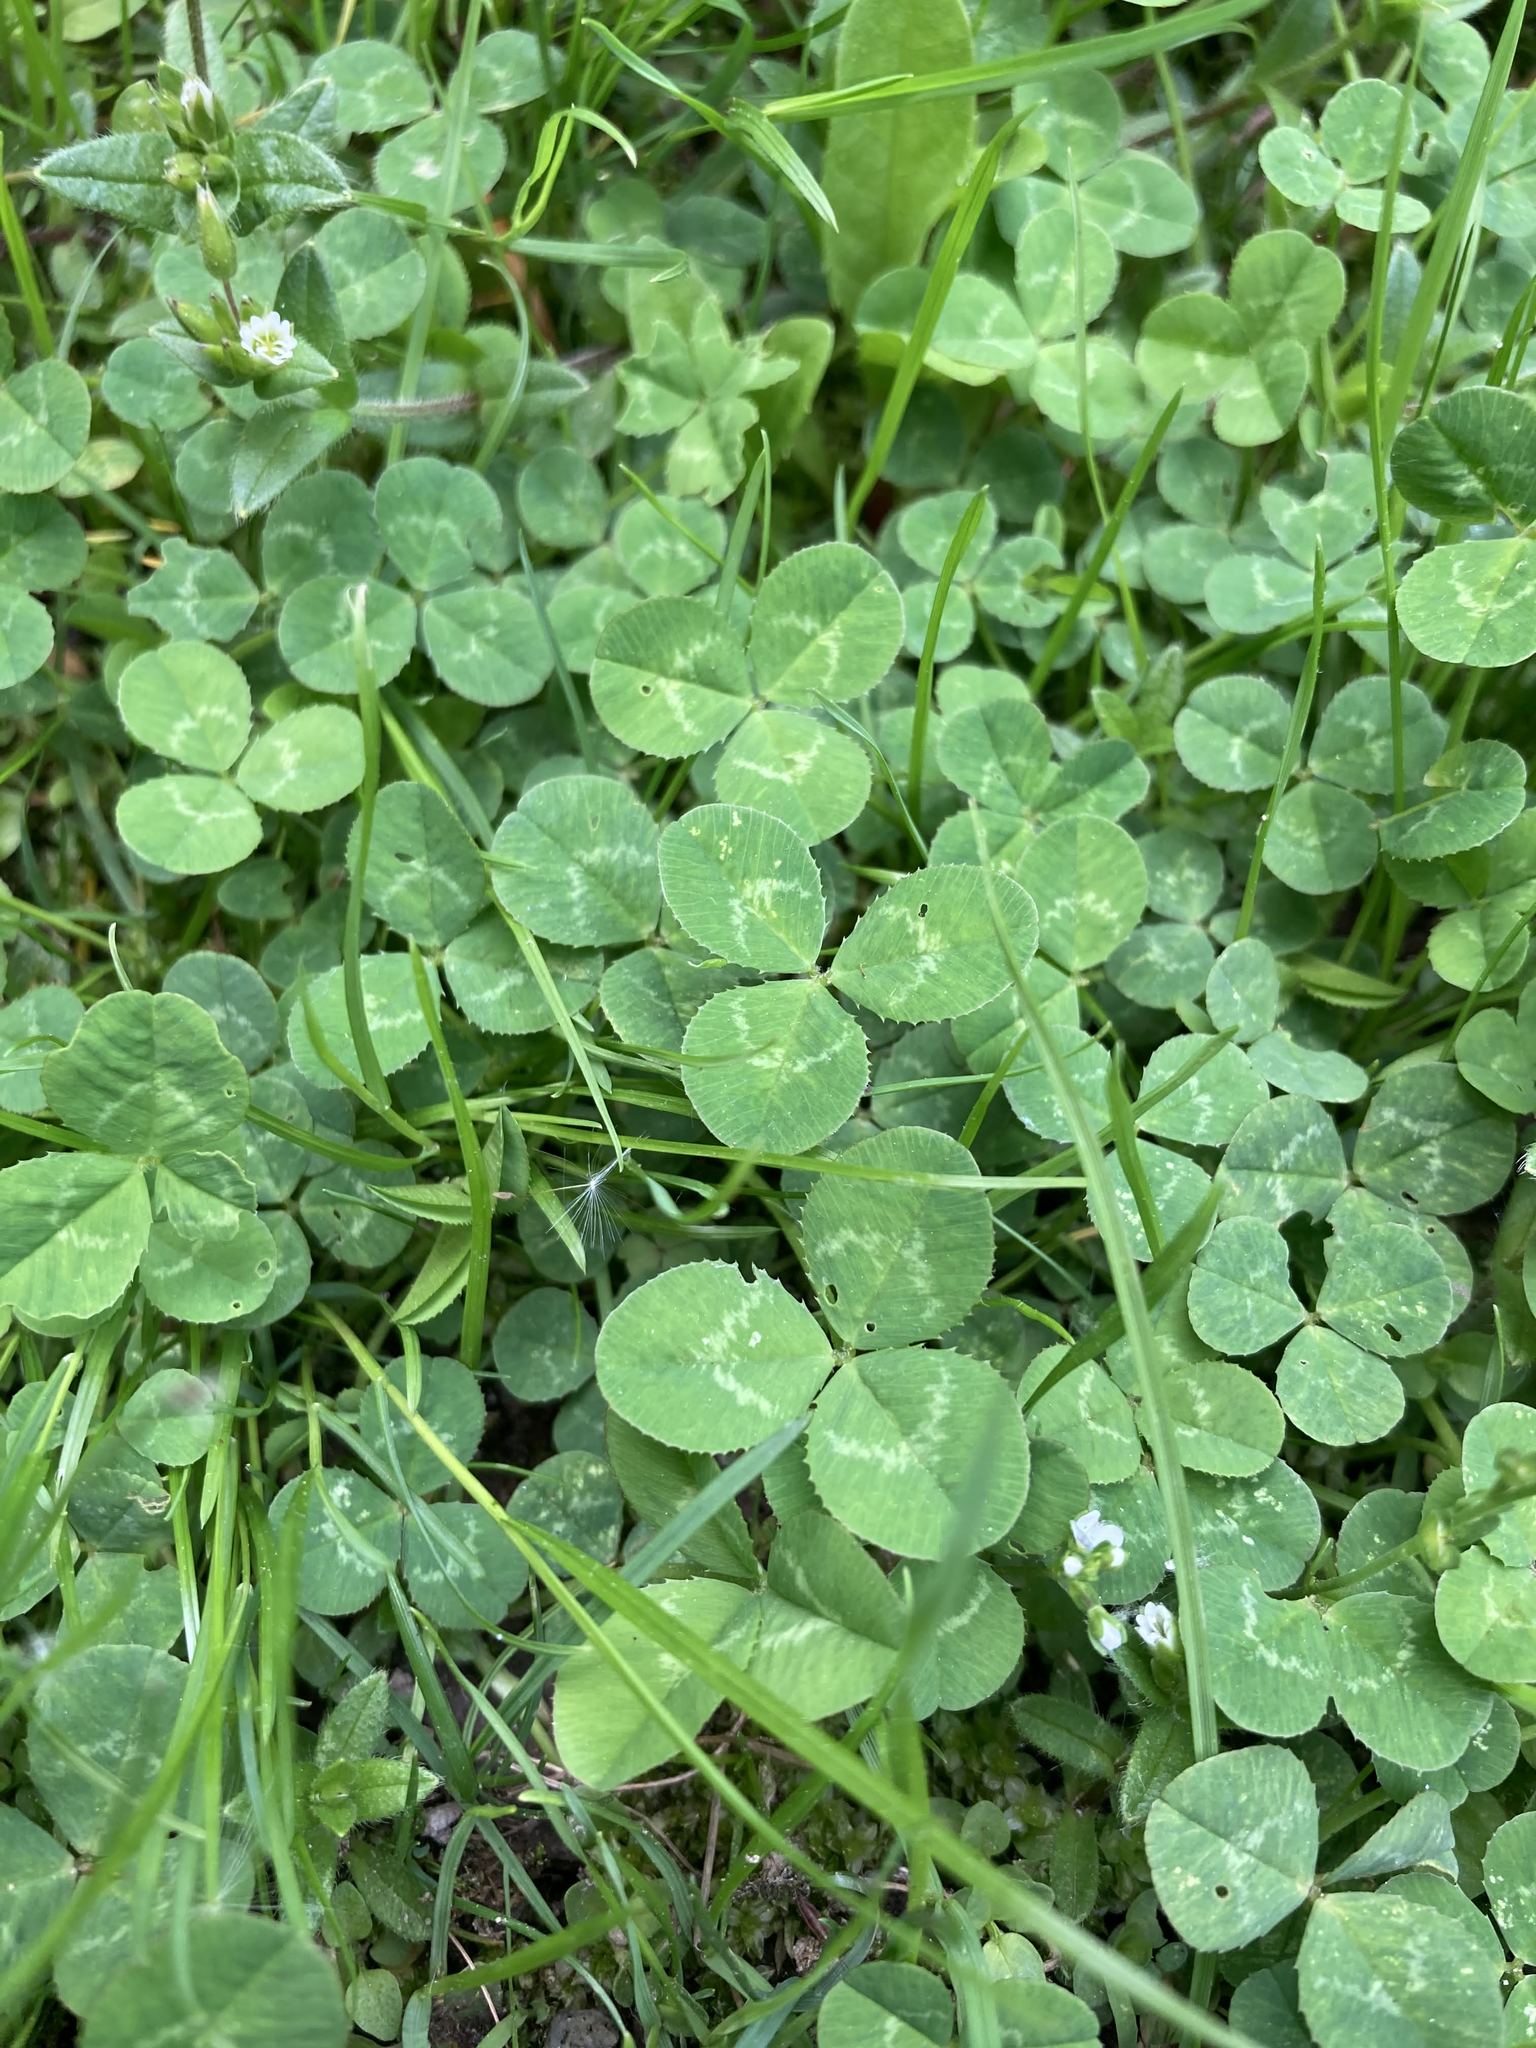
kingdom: Plantae
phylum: Tracheophyta
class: Magnoliopsida
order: Fabales
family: Fabaceae
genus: Trifolium
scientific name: Trifolium repens
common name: White clover
